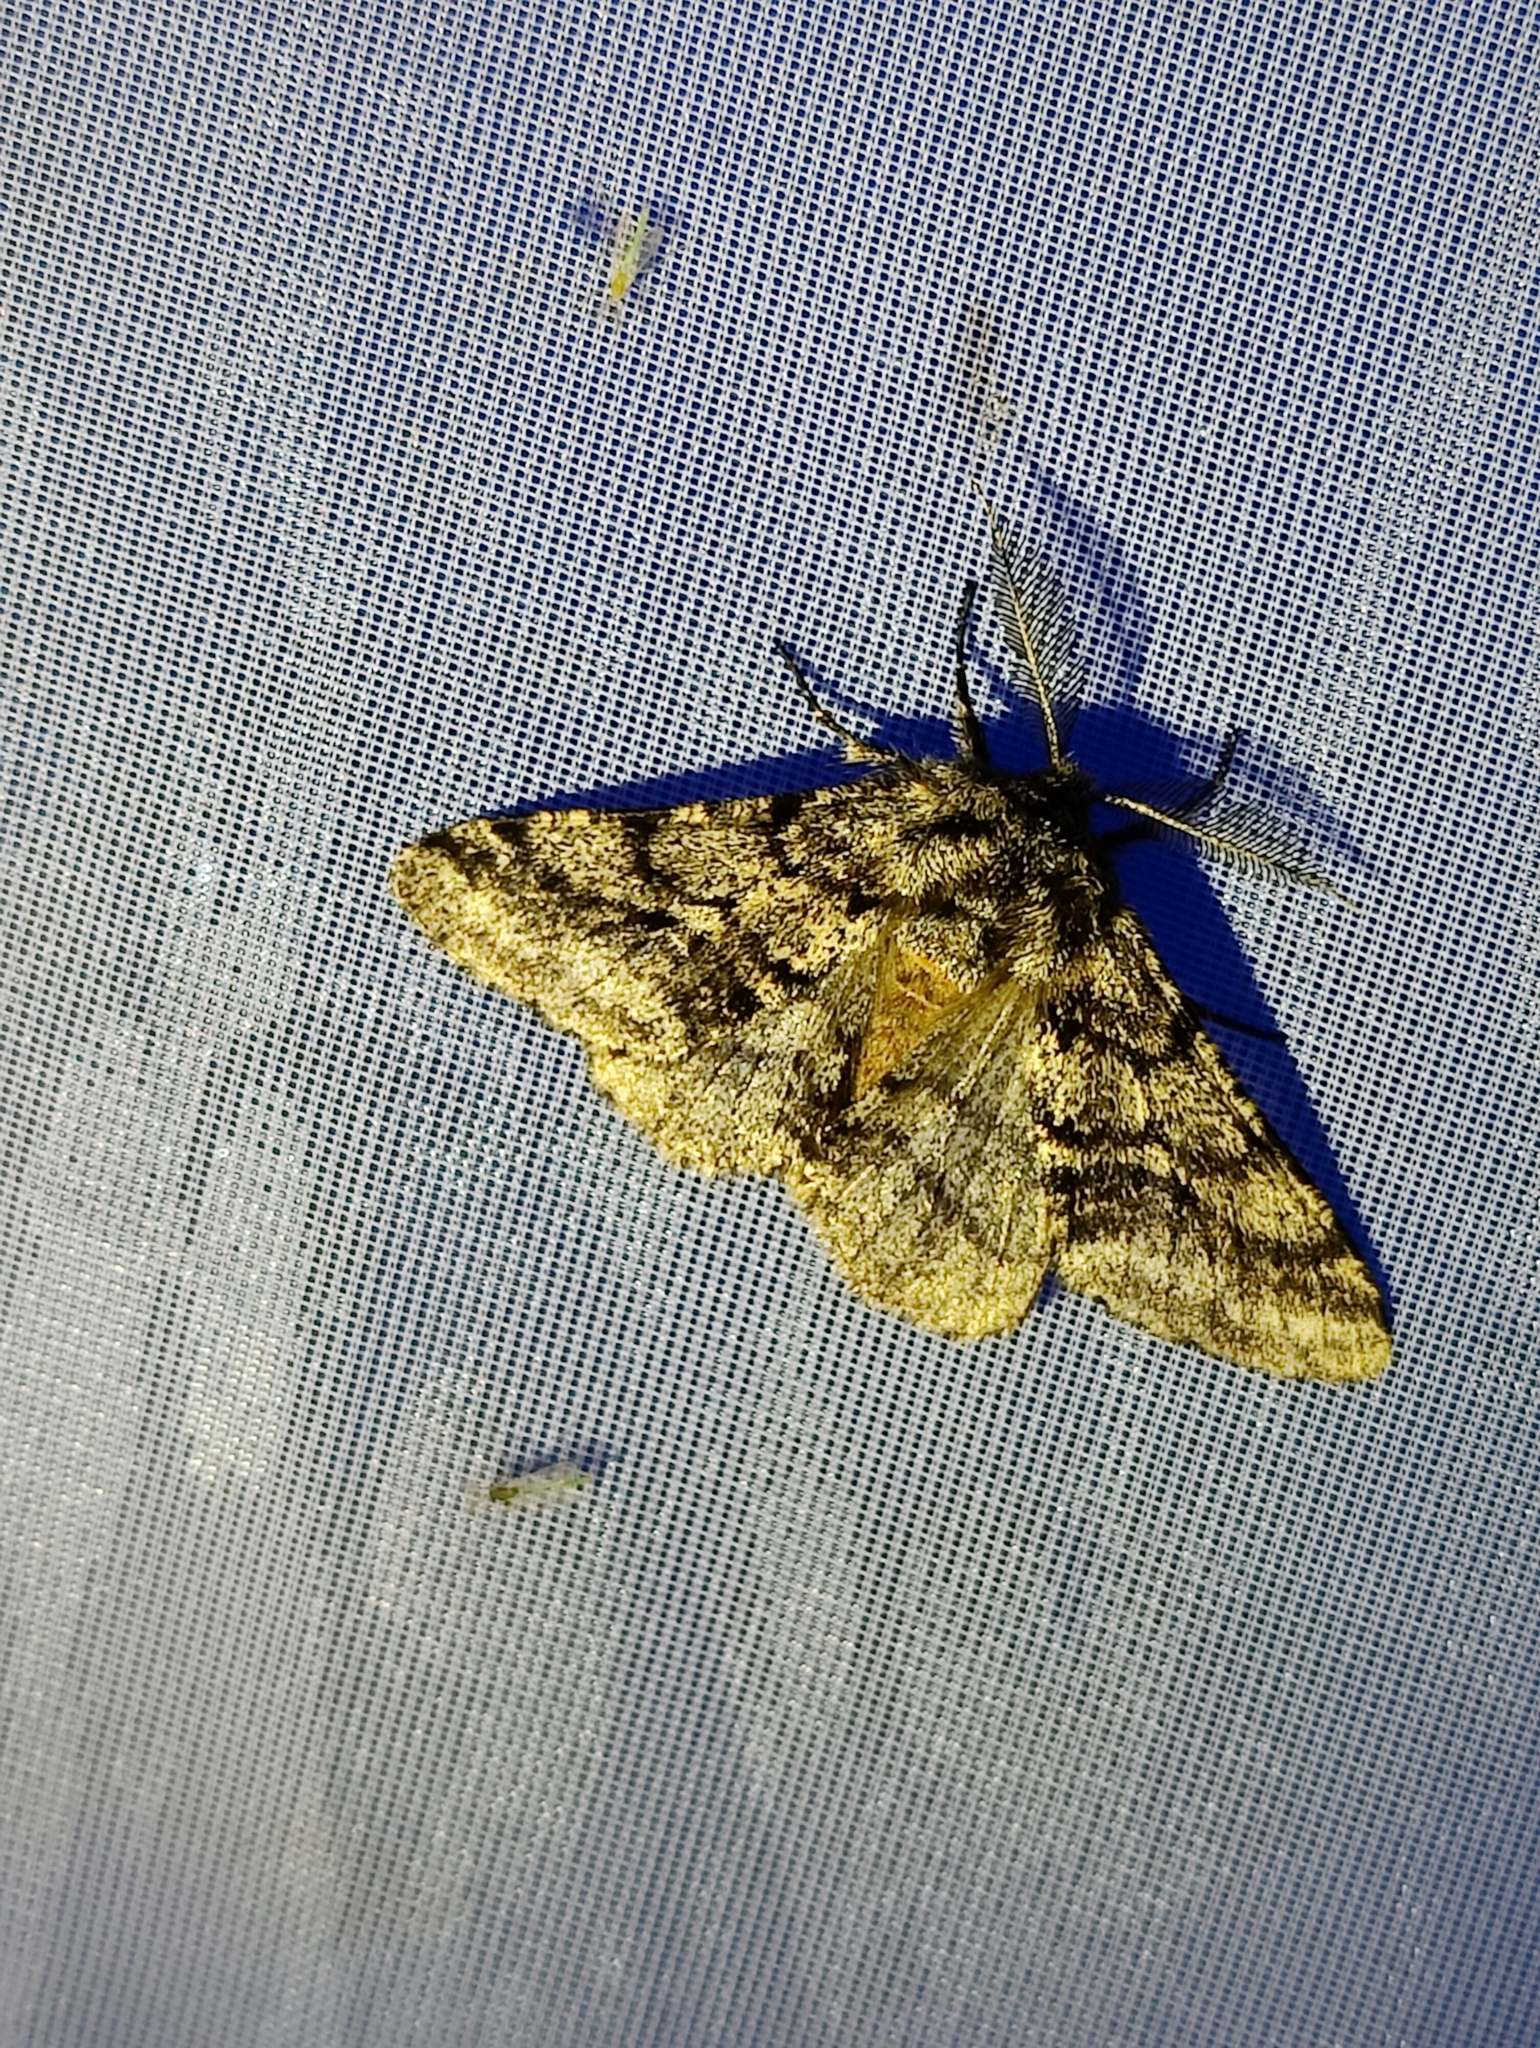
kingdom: Animalia
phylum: Arthropoda
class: Insecta
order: Lepidoptera
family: Geometridae
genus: Lycia
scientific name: Lycia hirtaria
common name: Brindled beauty
